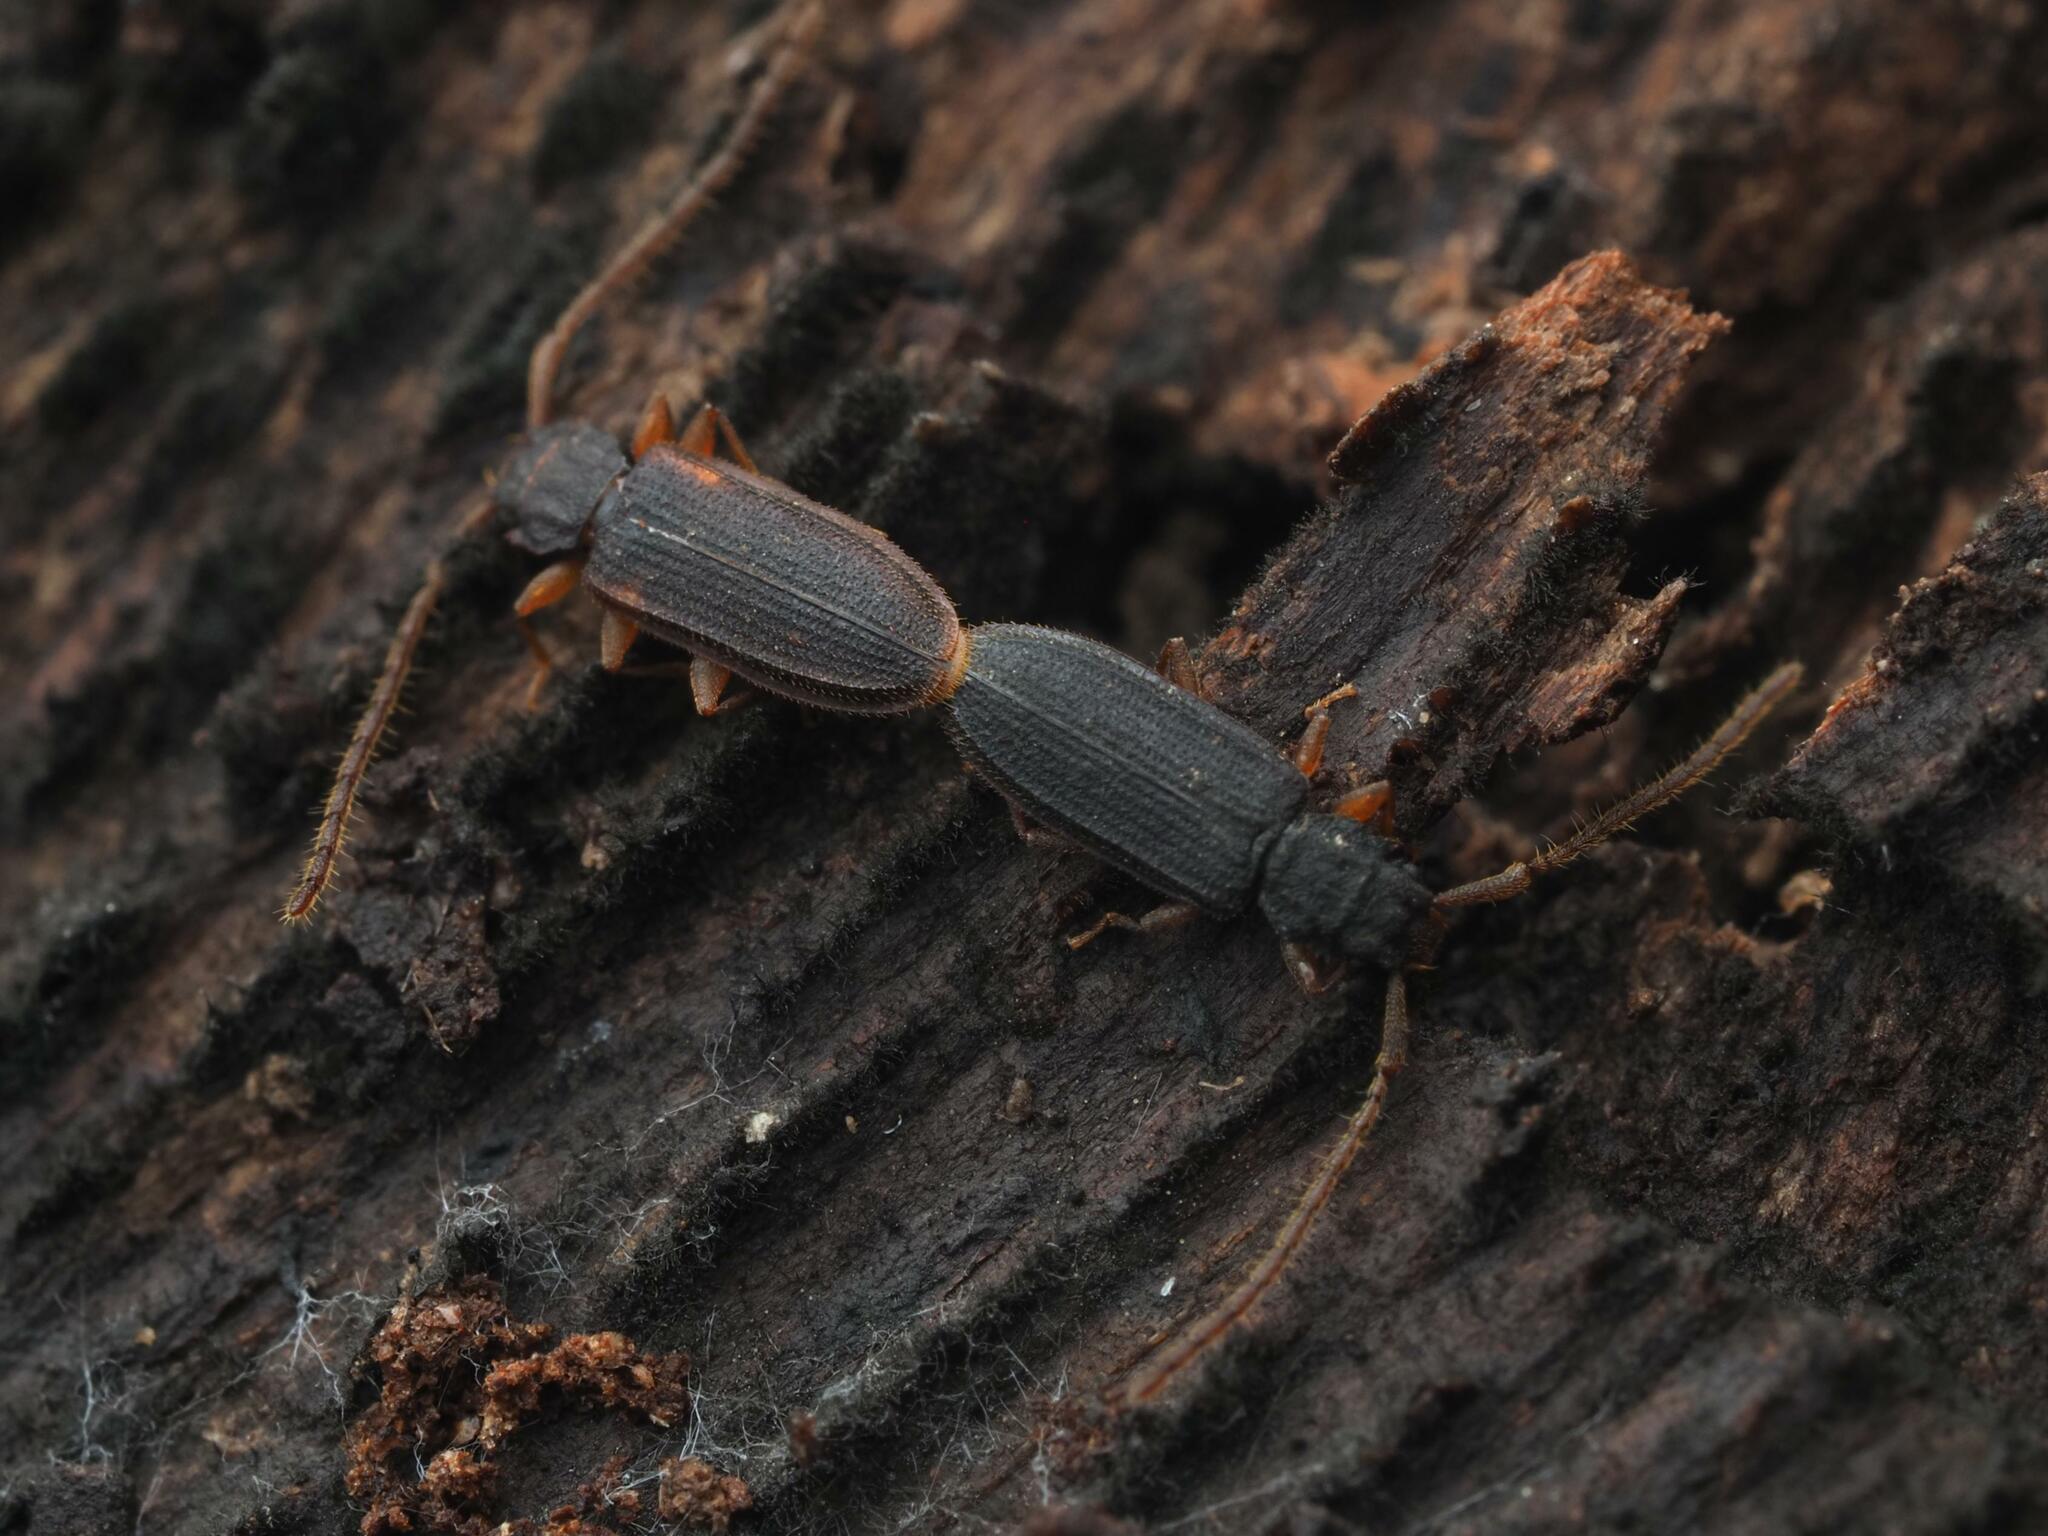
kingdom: Animalia
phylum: Arthropoda
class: Insecta
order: Coleoptera
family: Silvanidae
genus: Uleiota
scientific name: Uleiota planatus
